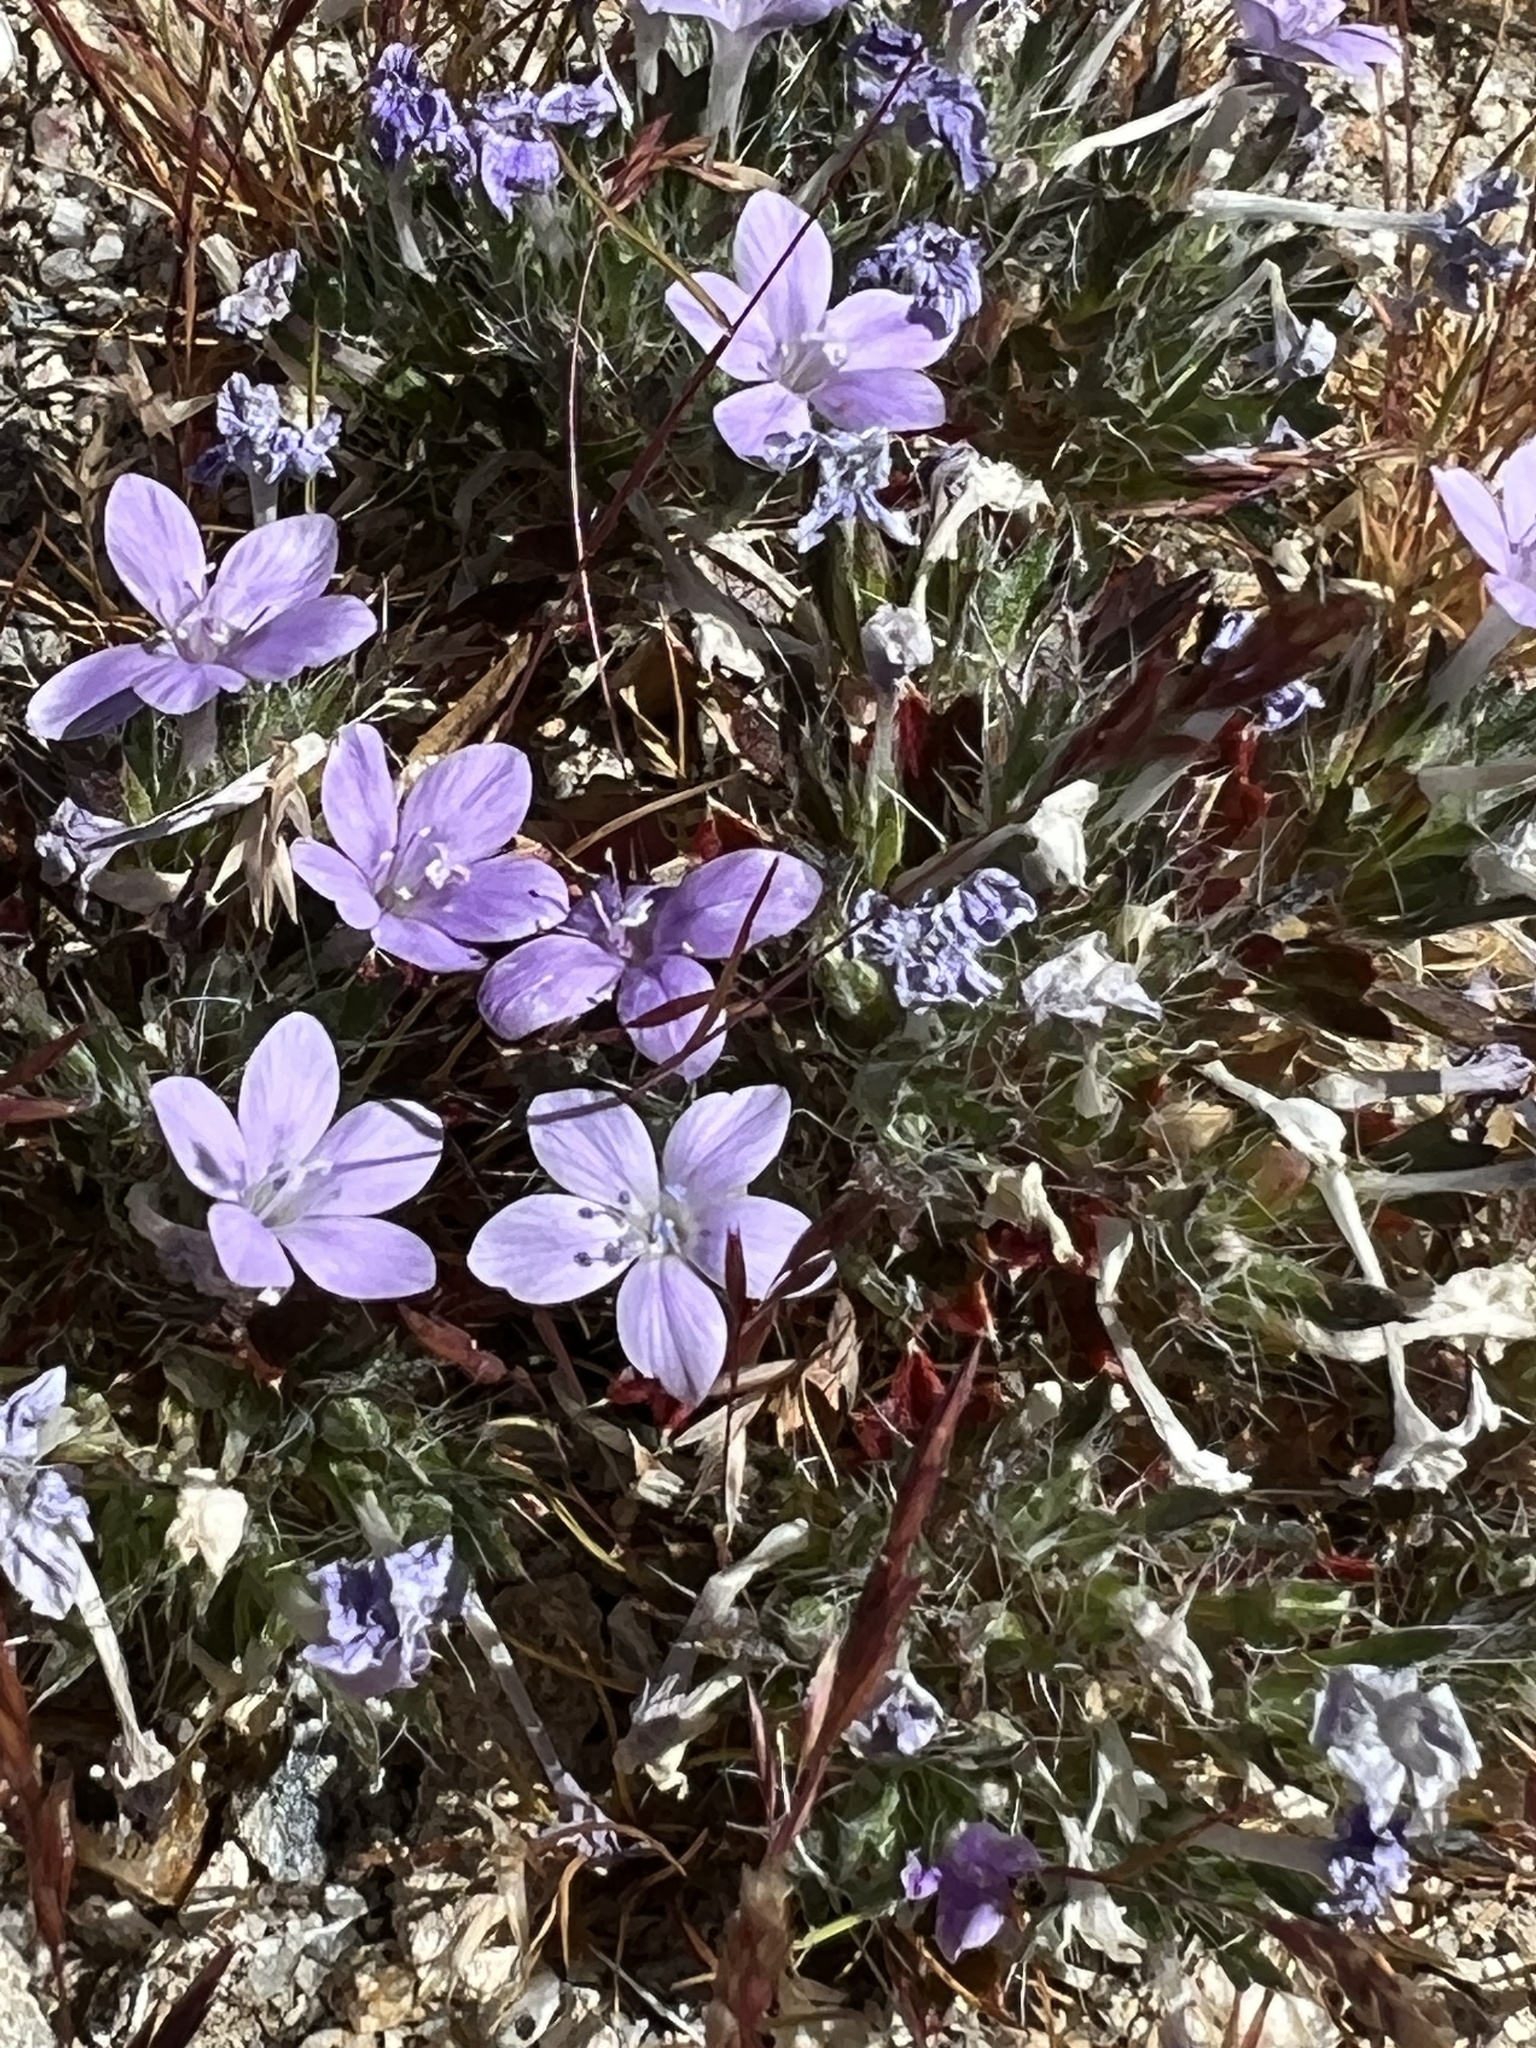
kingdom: Plantae
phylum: Tracheophyta
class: Magnoliopsida
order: Ericales
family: Polemoniaceae
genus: Langloisia
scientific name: Langloisia setosissima
